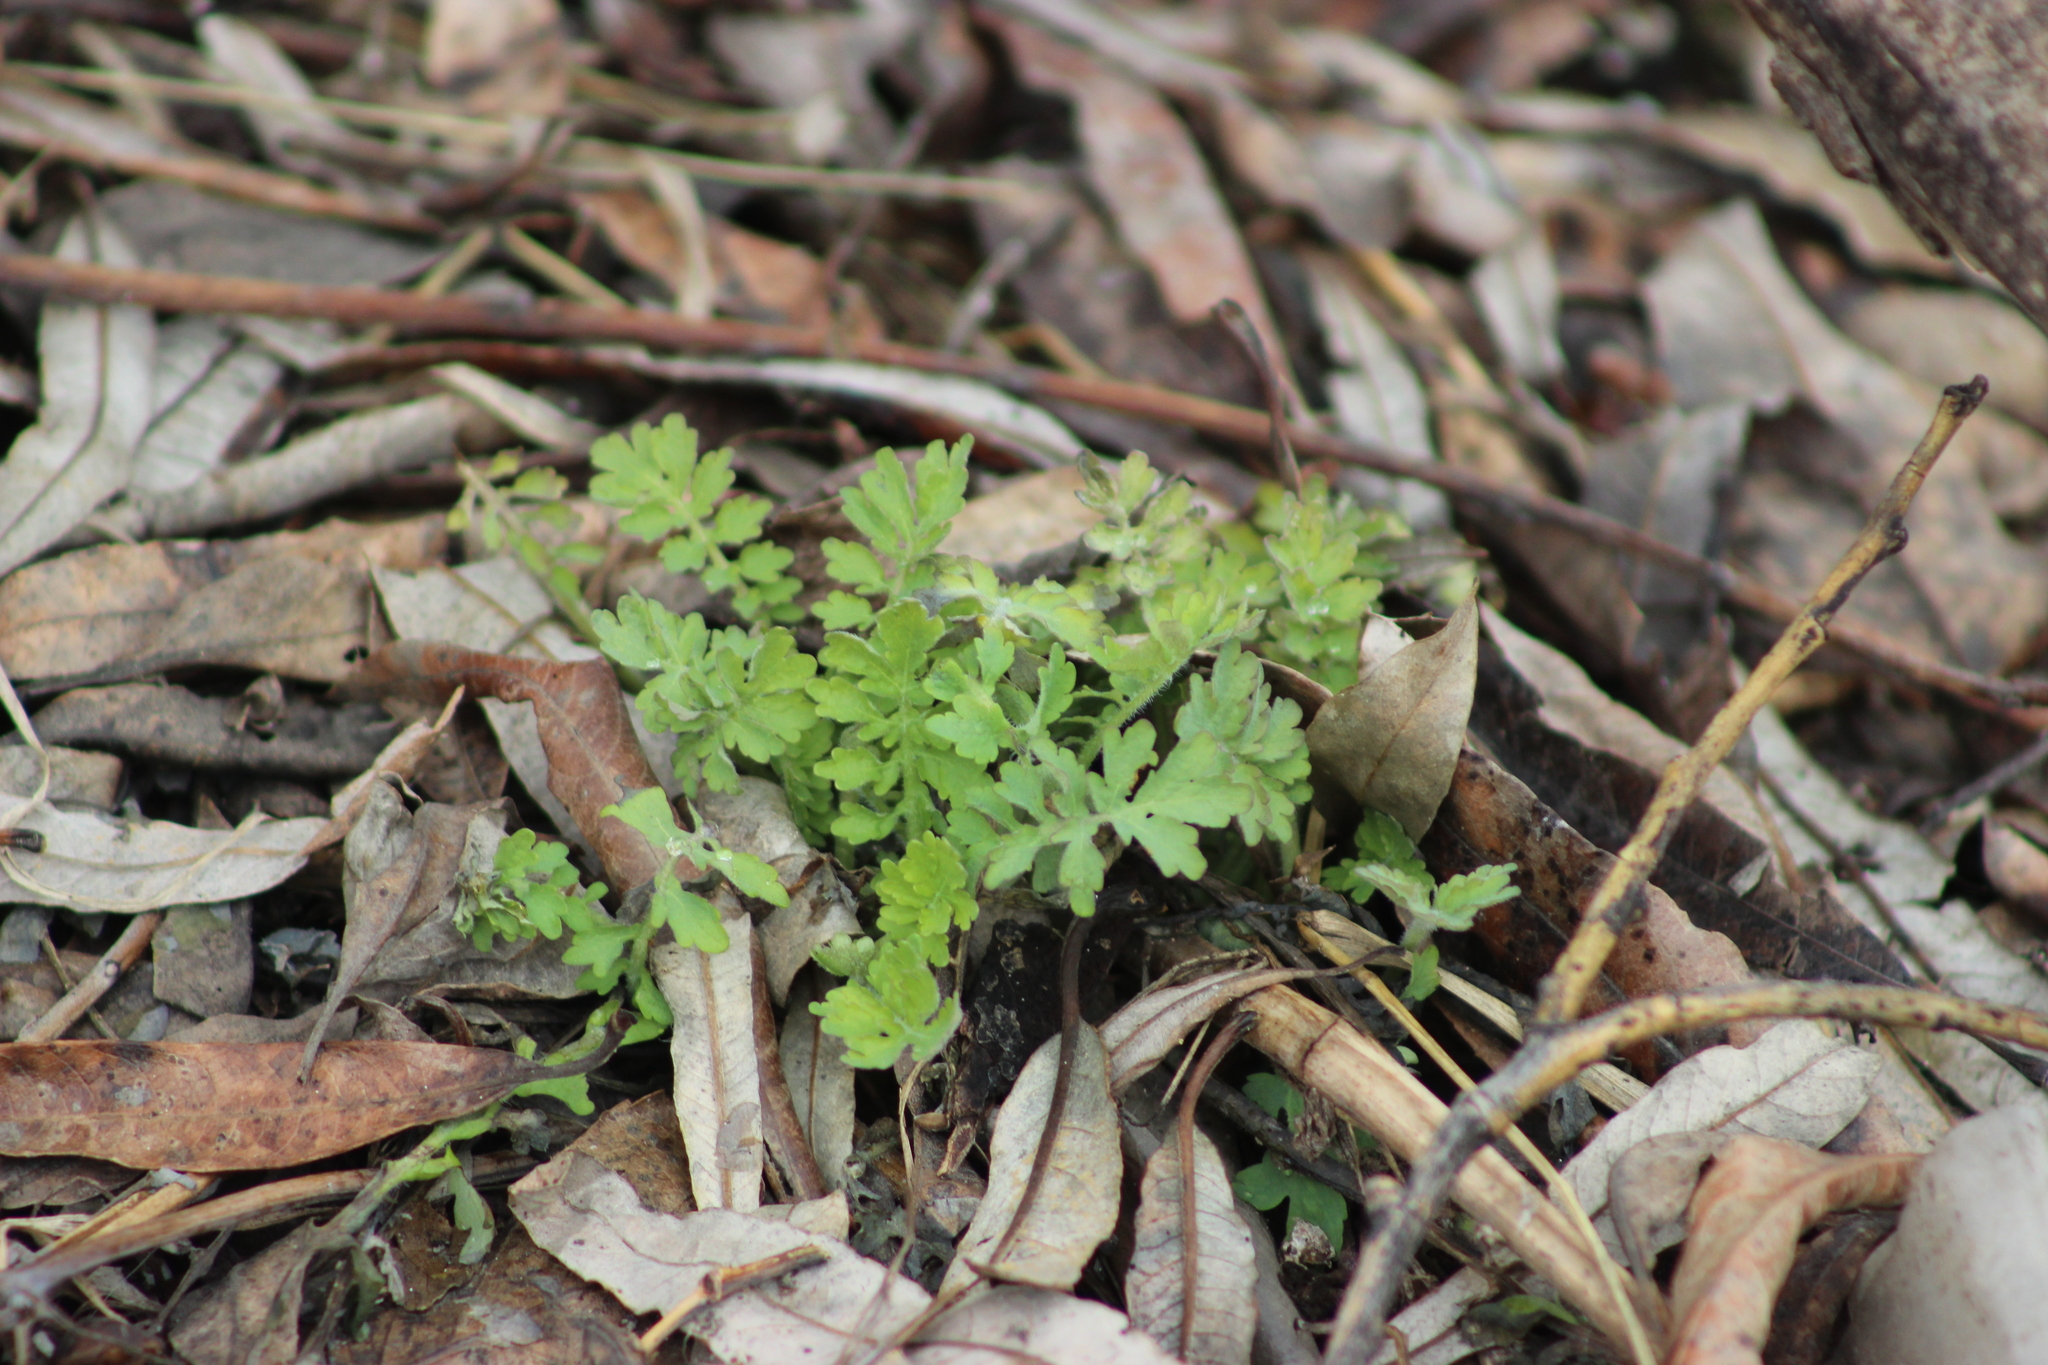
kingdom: Plantae
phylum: Tracheophyta
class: Magnoliopsida
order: Ranunculales
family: Papaveraceae
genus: Chelidonium
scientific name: Chelidonium majus
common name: Greater celandine
